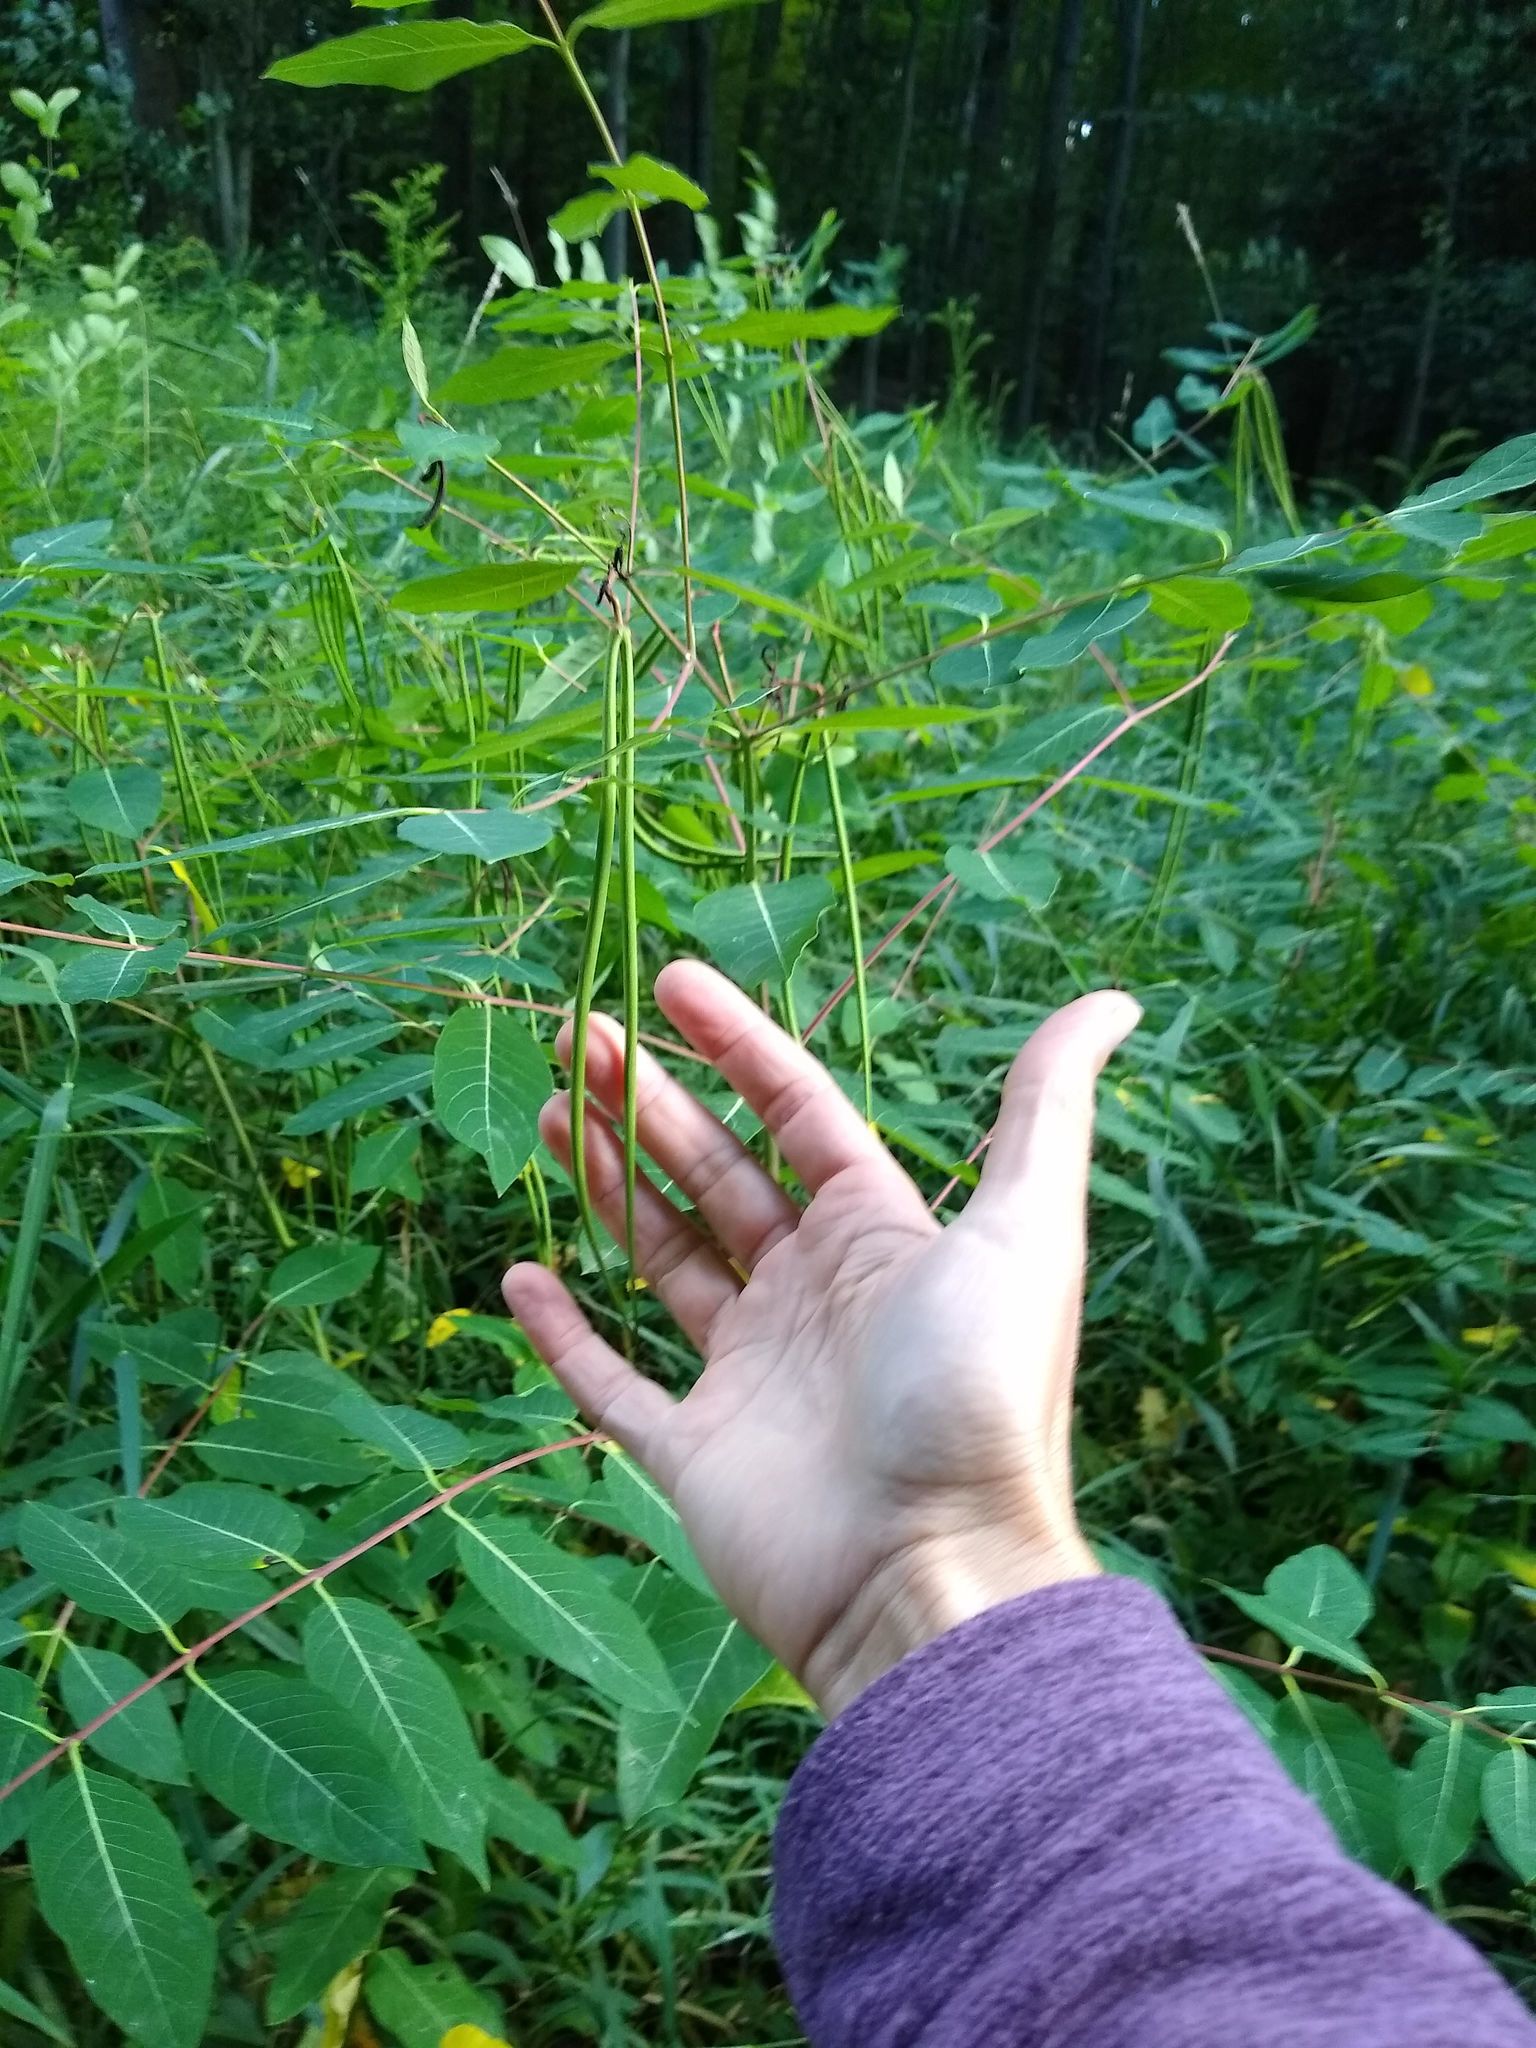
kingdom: Plantae
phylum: Tracheophyta
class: Magnoliopsida
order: Gentianales
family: Apocynaceae
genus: Apocynum
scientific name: Apocynum cannabinum
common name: Hemp dogbane
